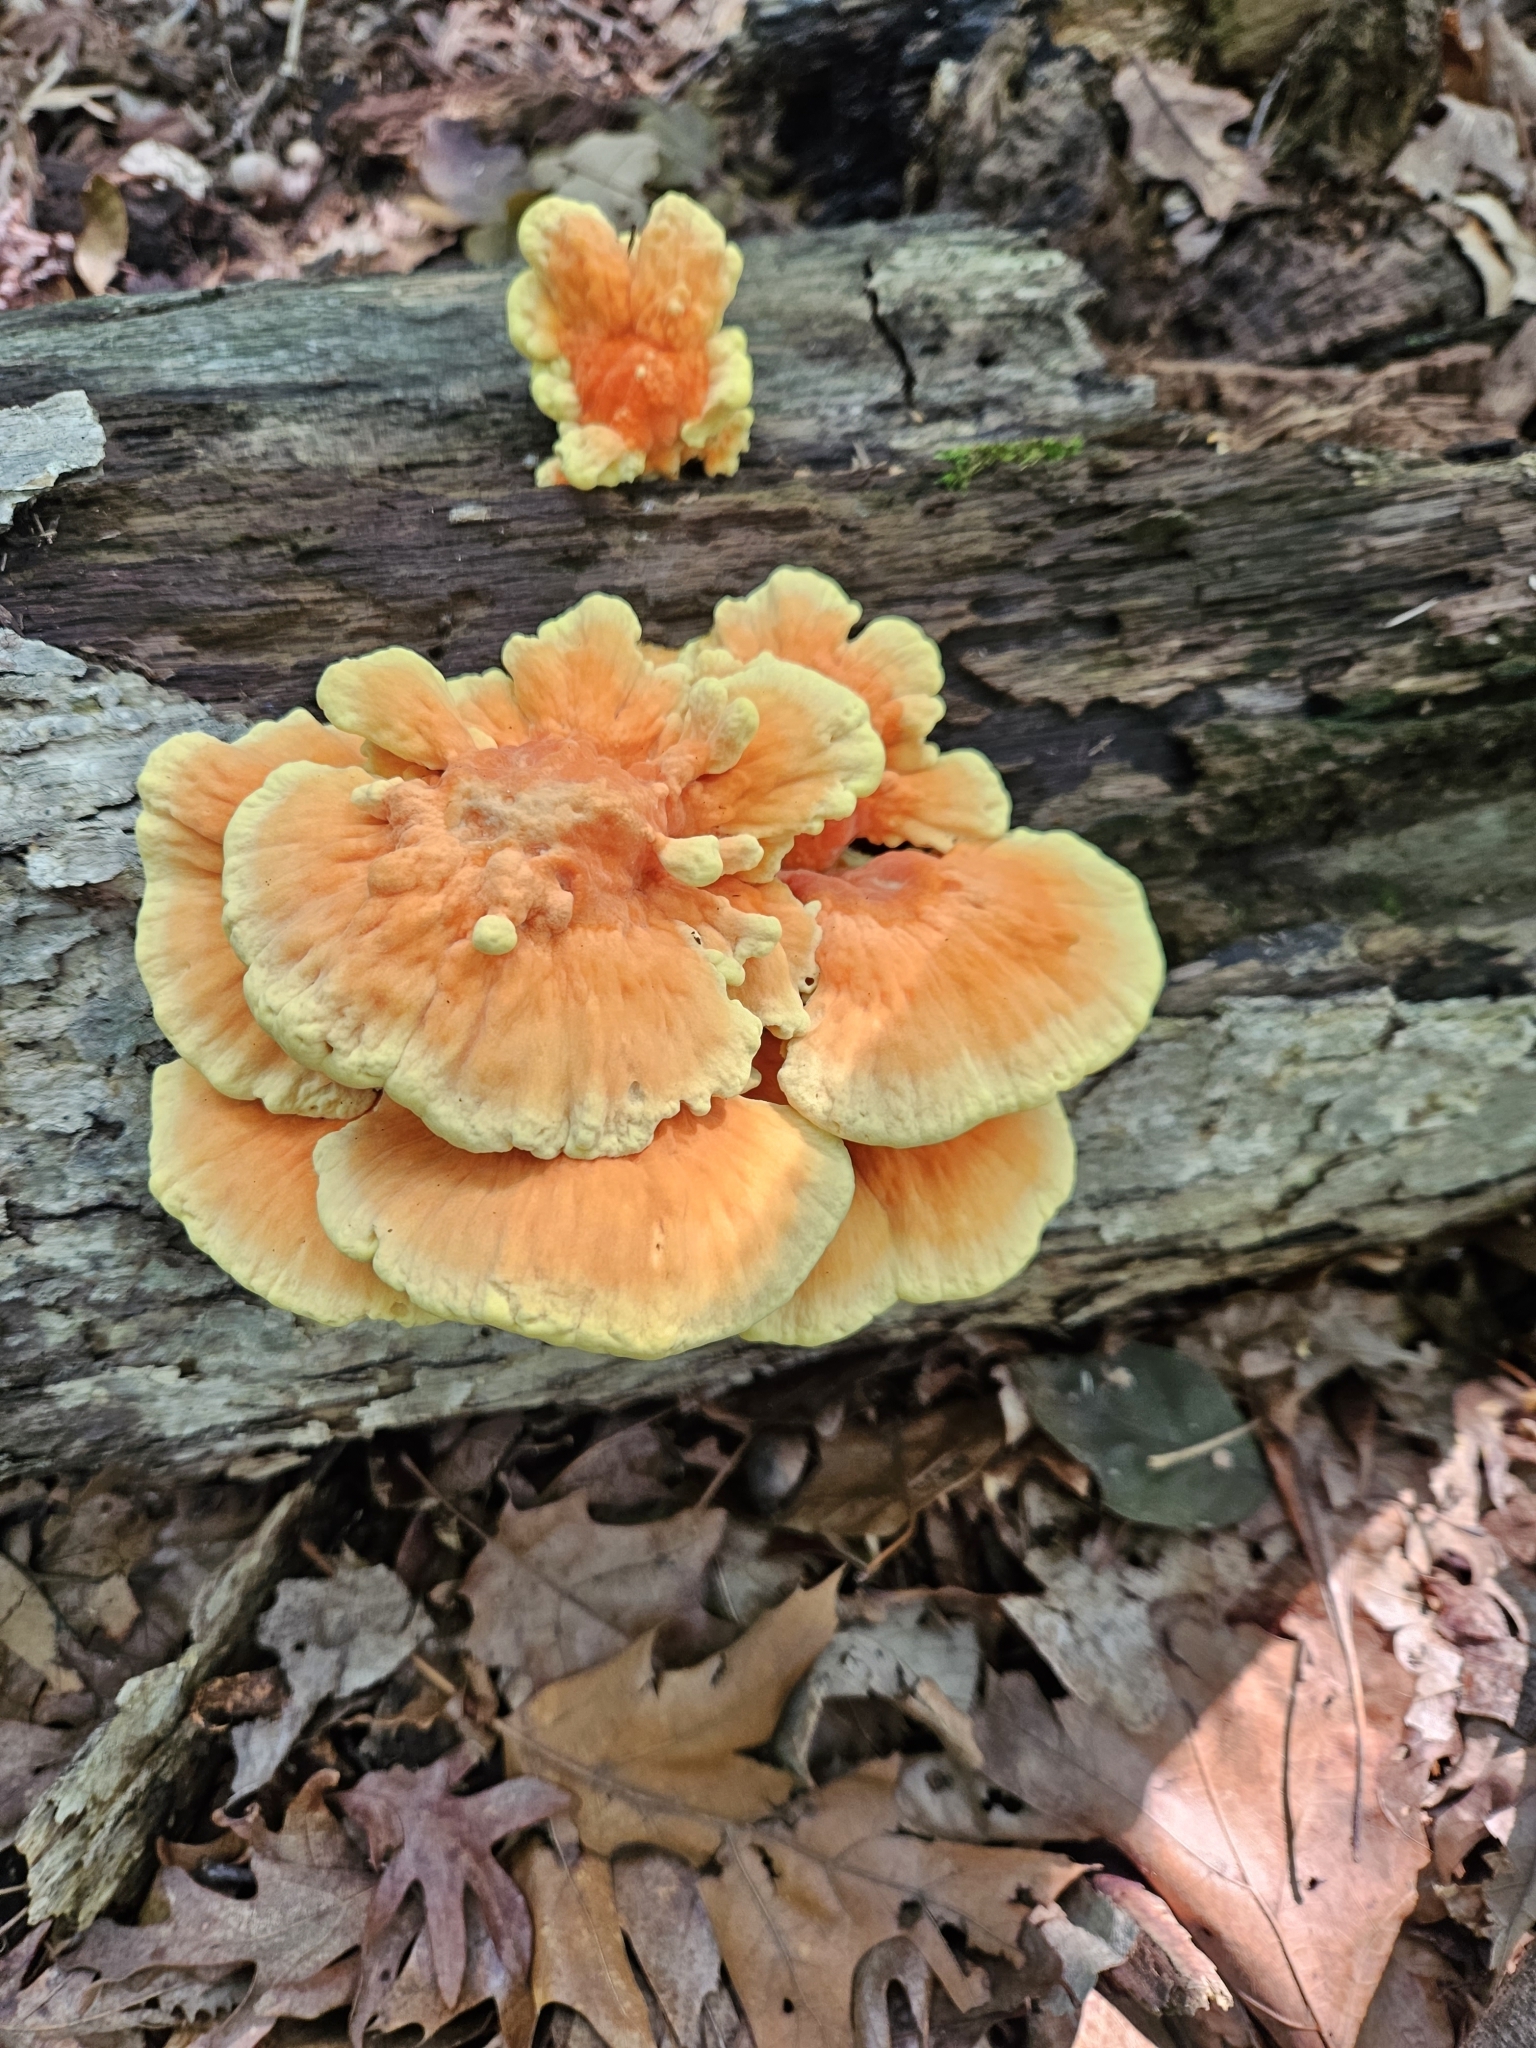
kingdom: Fungi
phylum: Basidiomycota
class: Agaricomycetes
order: Polyporales
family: Laetiporaceae
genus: Laetiporus
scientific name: Laetiporus sulphureus
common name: Chicken of the woods
